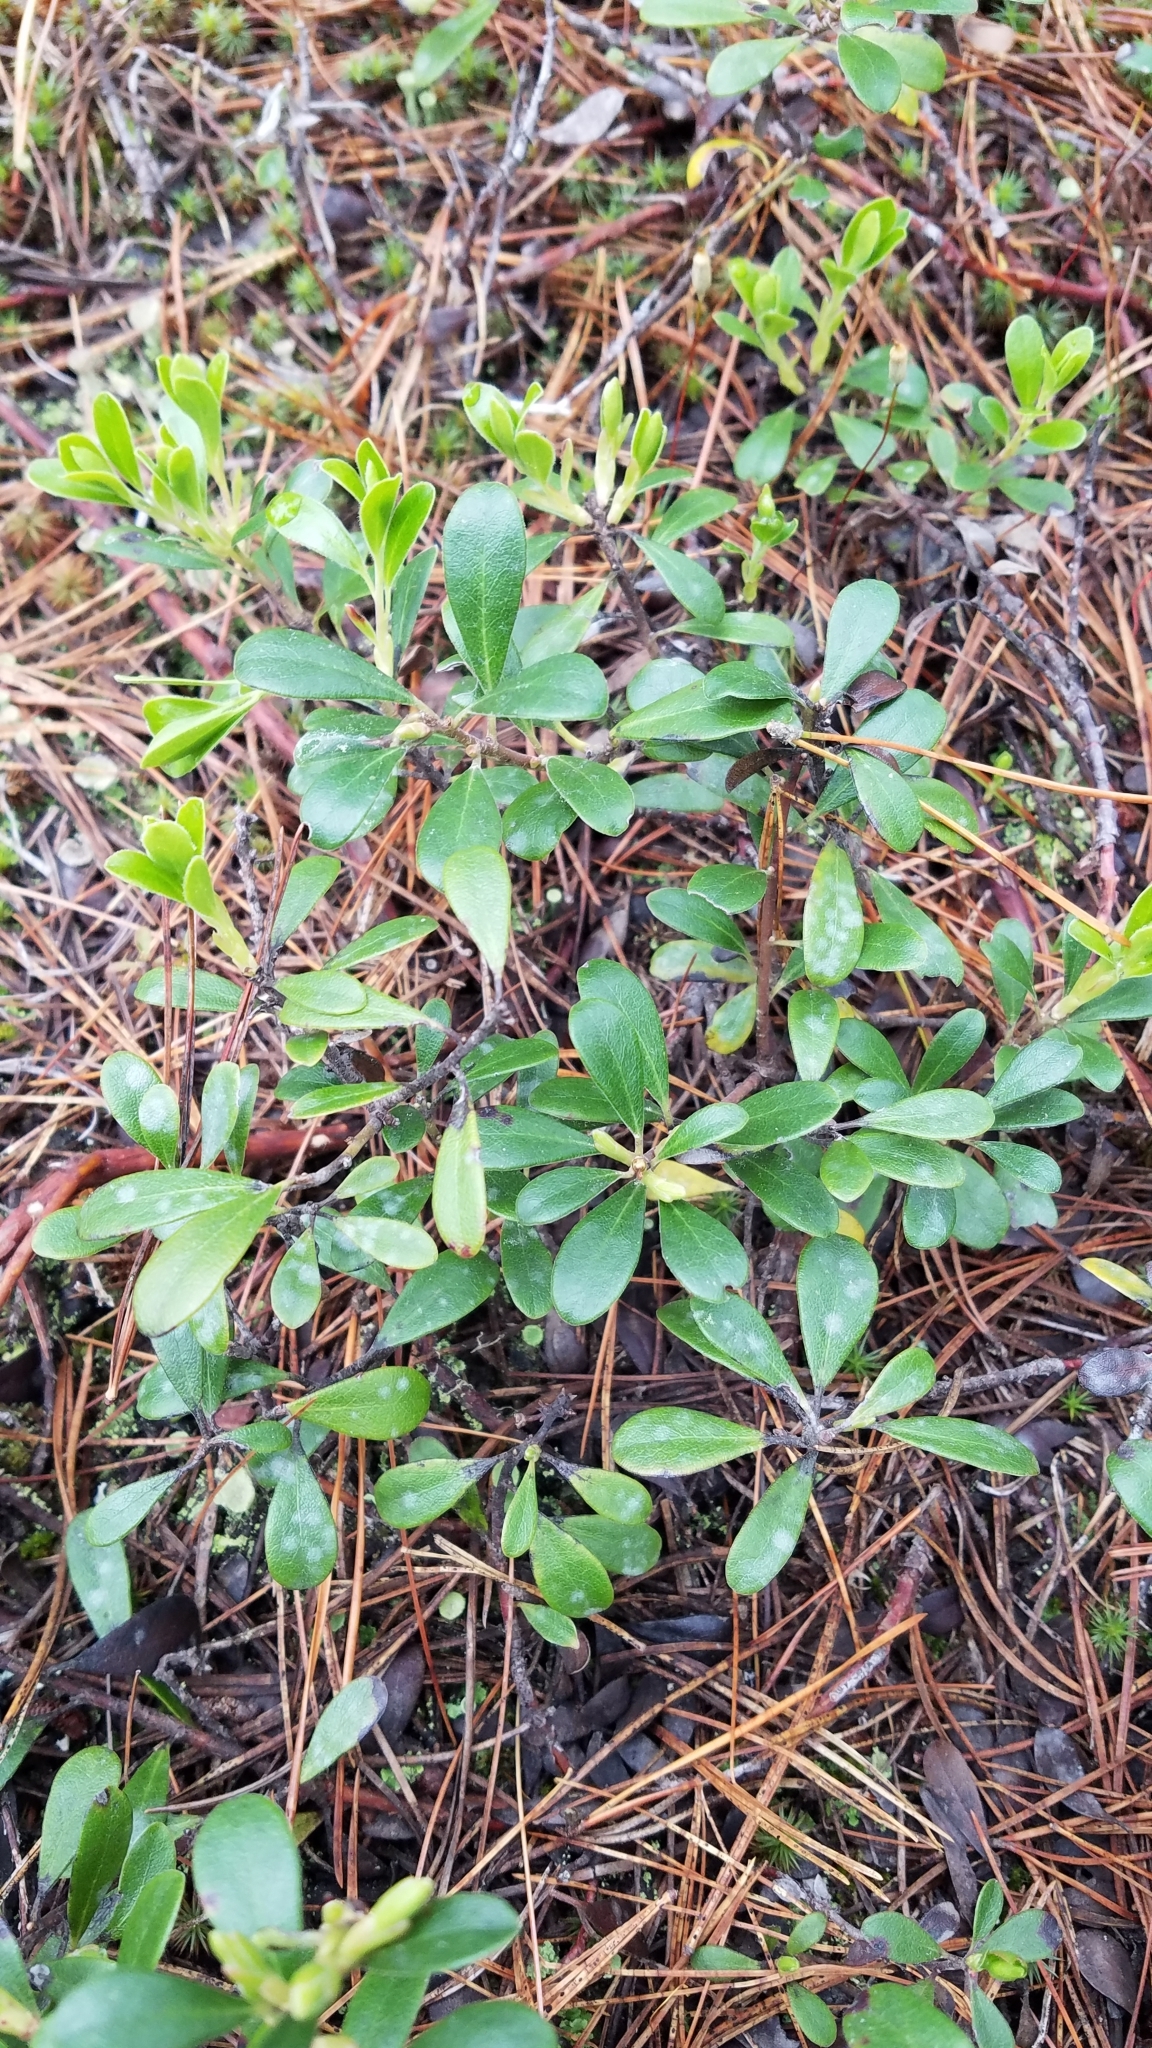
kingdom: Plantae
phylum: Tracheophyta
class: Magnoliopsida
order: Ericales
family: Ericaceae
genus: Arctostaphylos
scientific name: Arctostaphylos uva-ursi
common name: Bearberry
